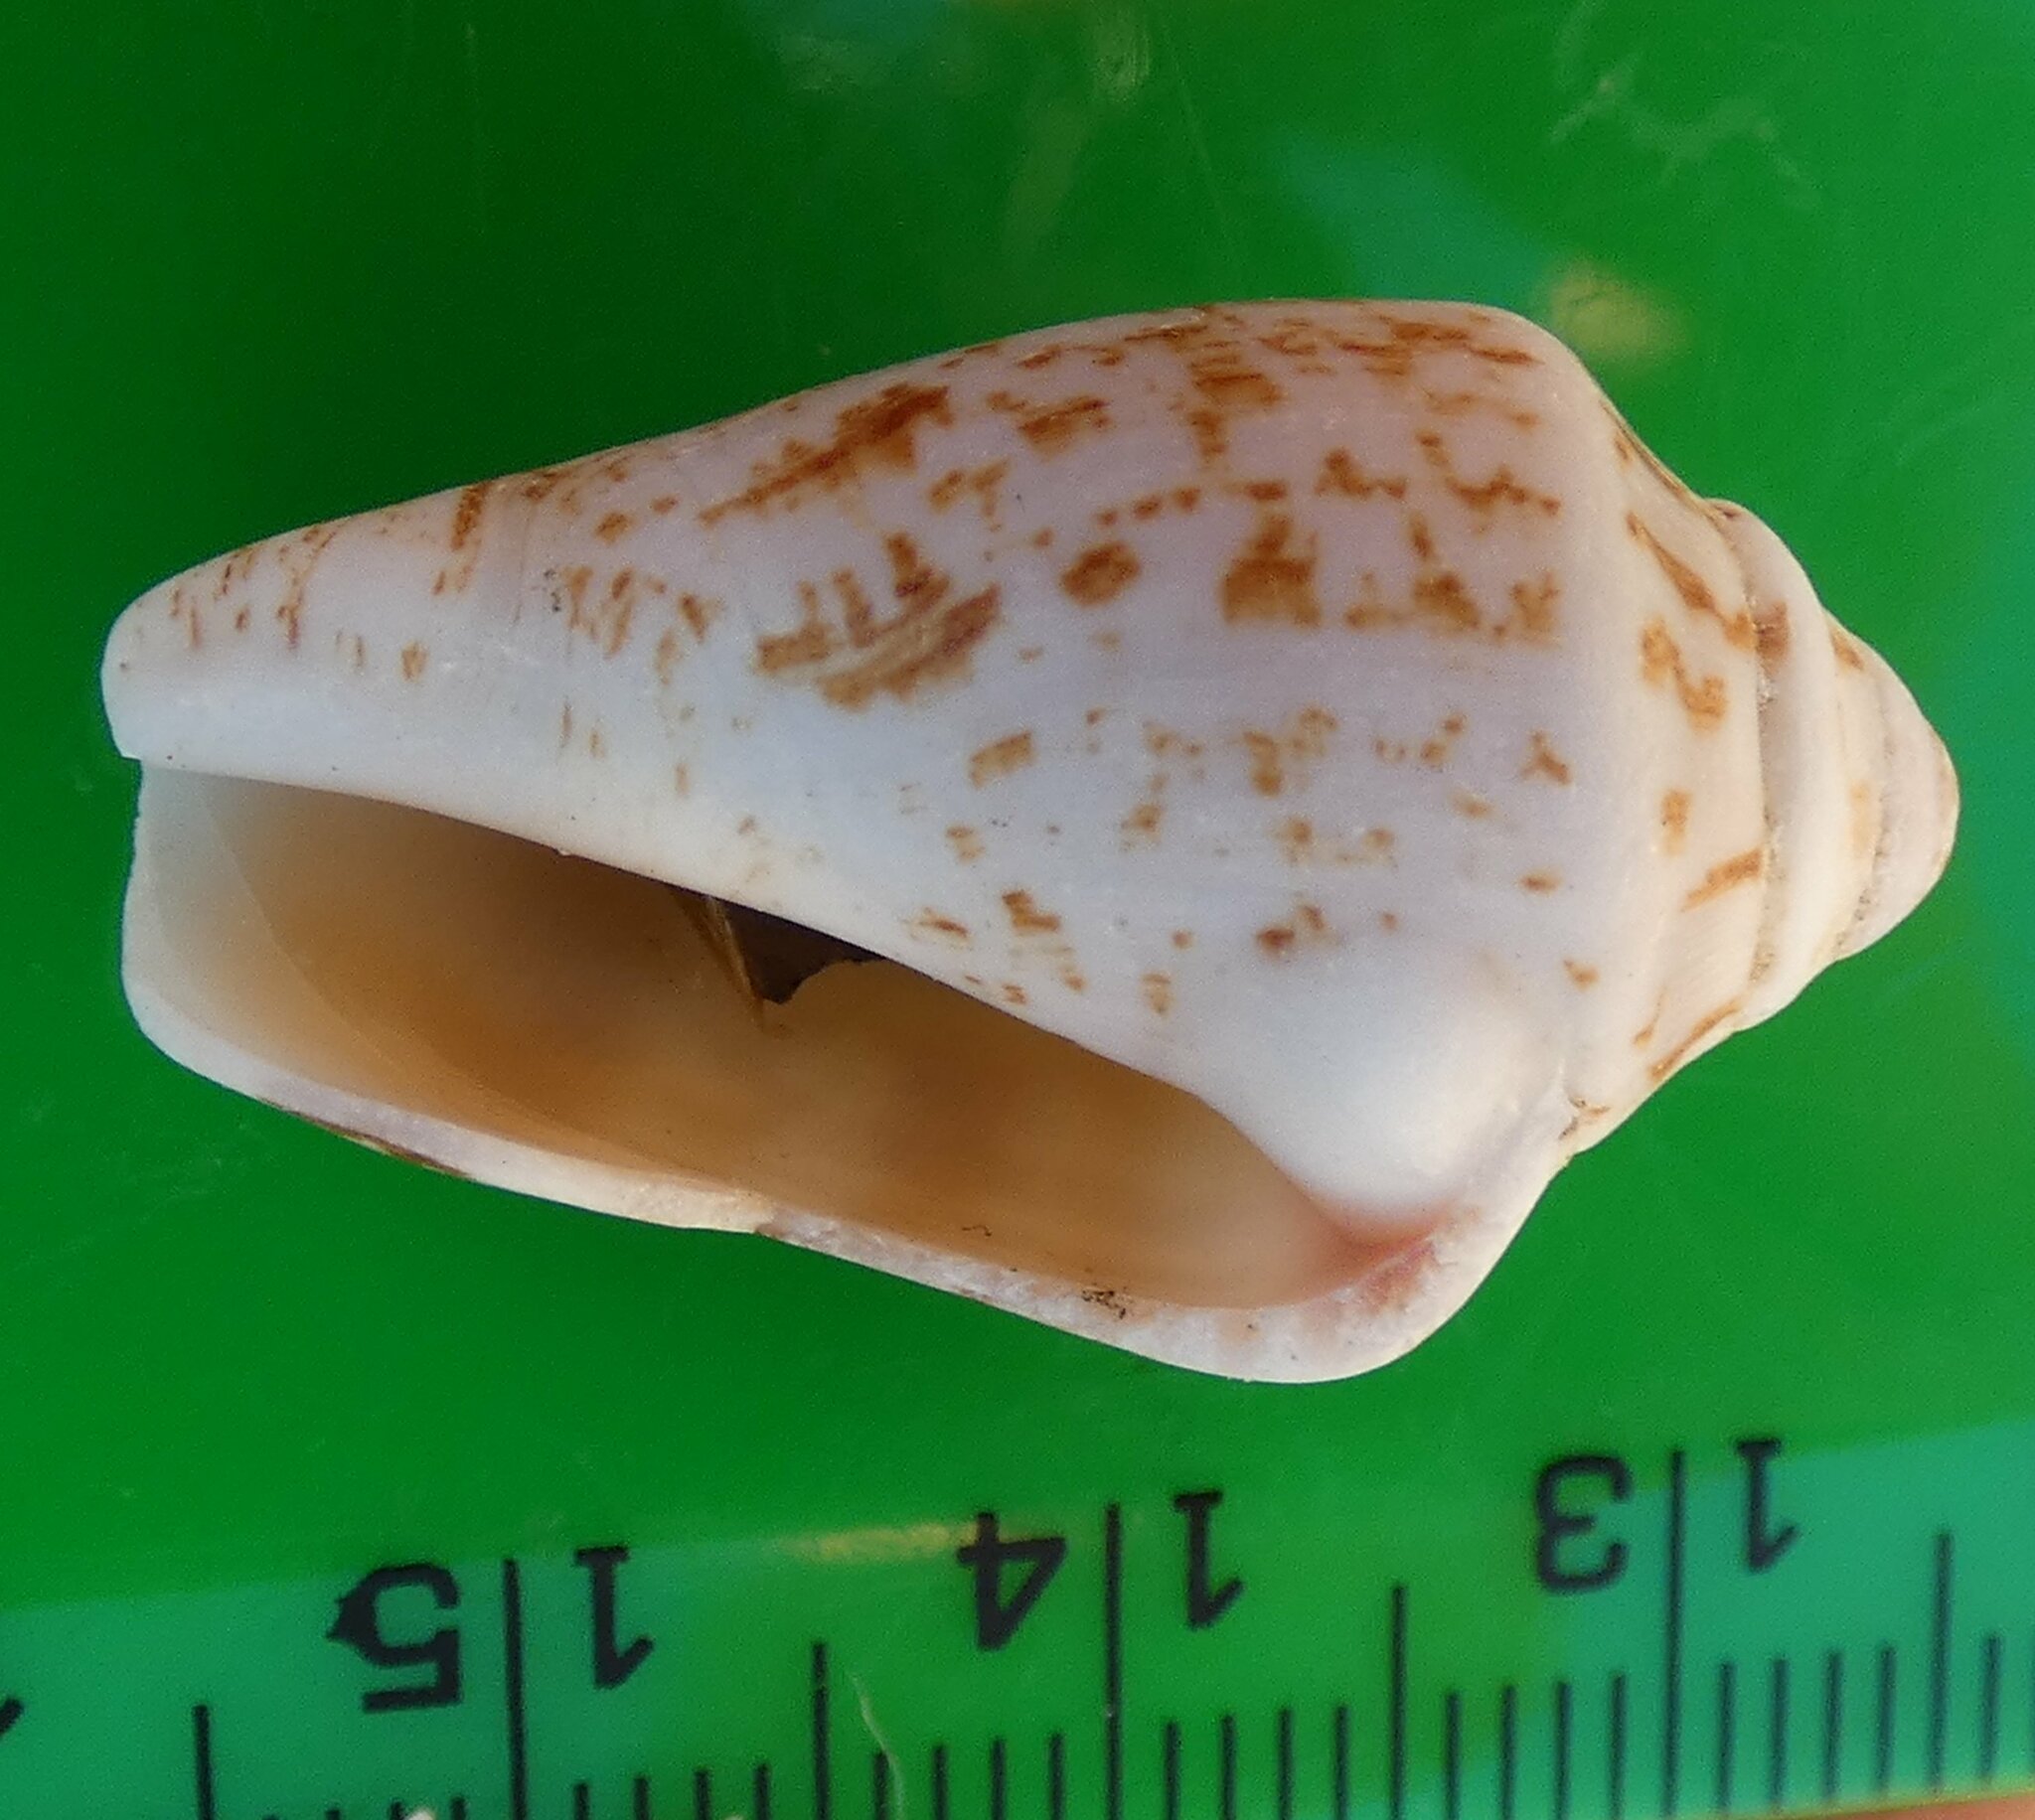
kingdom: Animalia
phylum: Mollusca
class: Gastropoda
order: Littorinimorpha
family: Strombidae
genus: Conomurex
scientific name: Conomurex persicus
